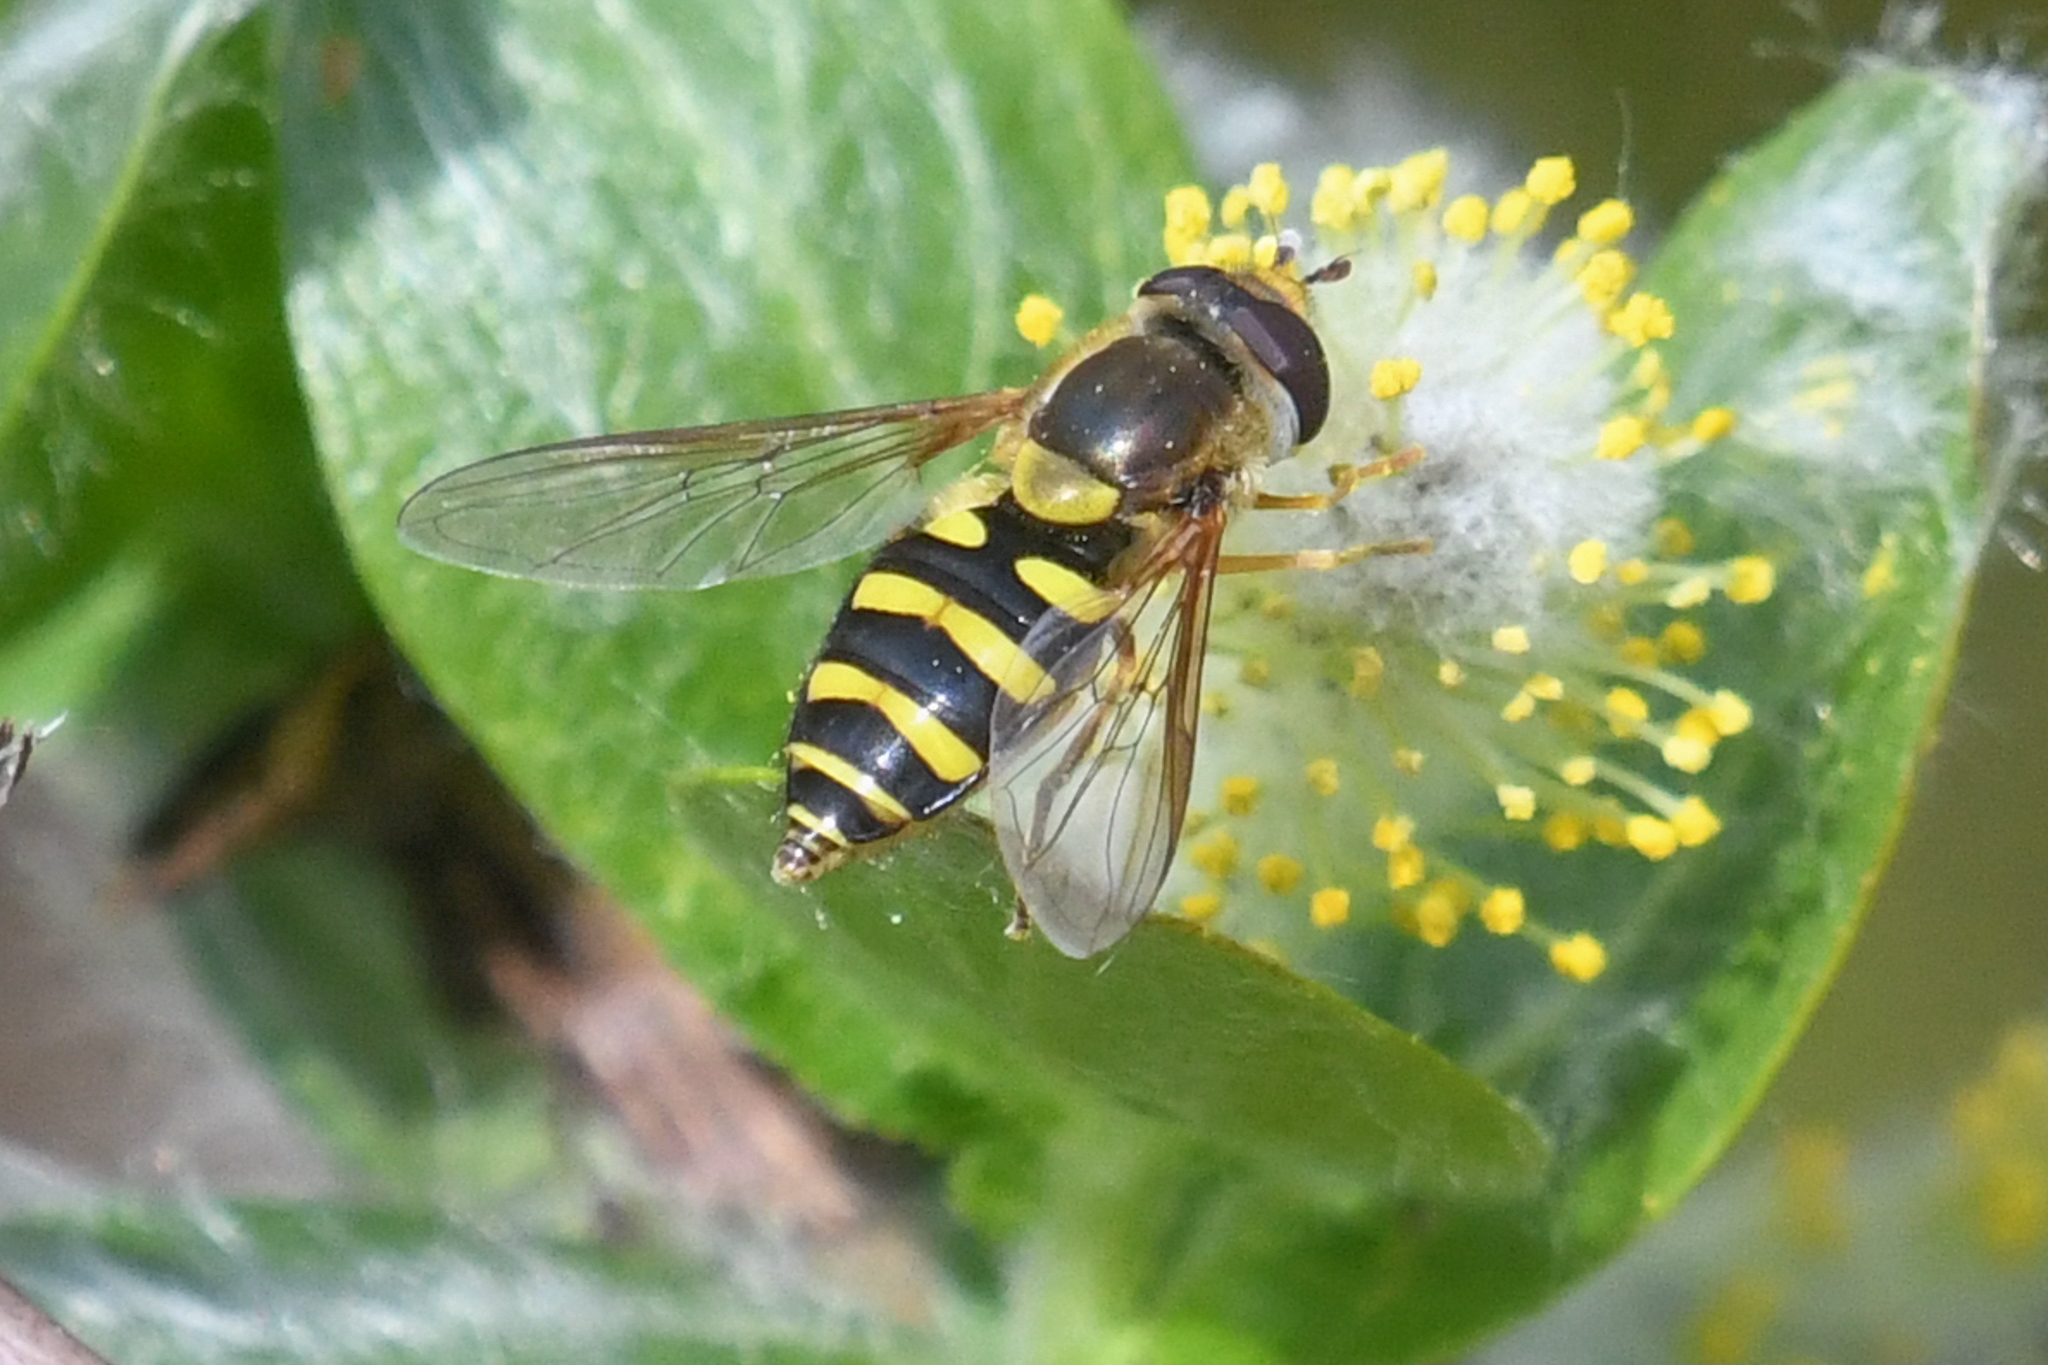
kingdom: Animalia
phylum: Arthropoda
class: Insecta
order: Diptera
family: Syrphidae
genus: Syrphus
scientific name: Syrphus opinator
